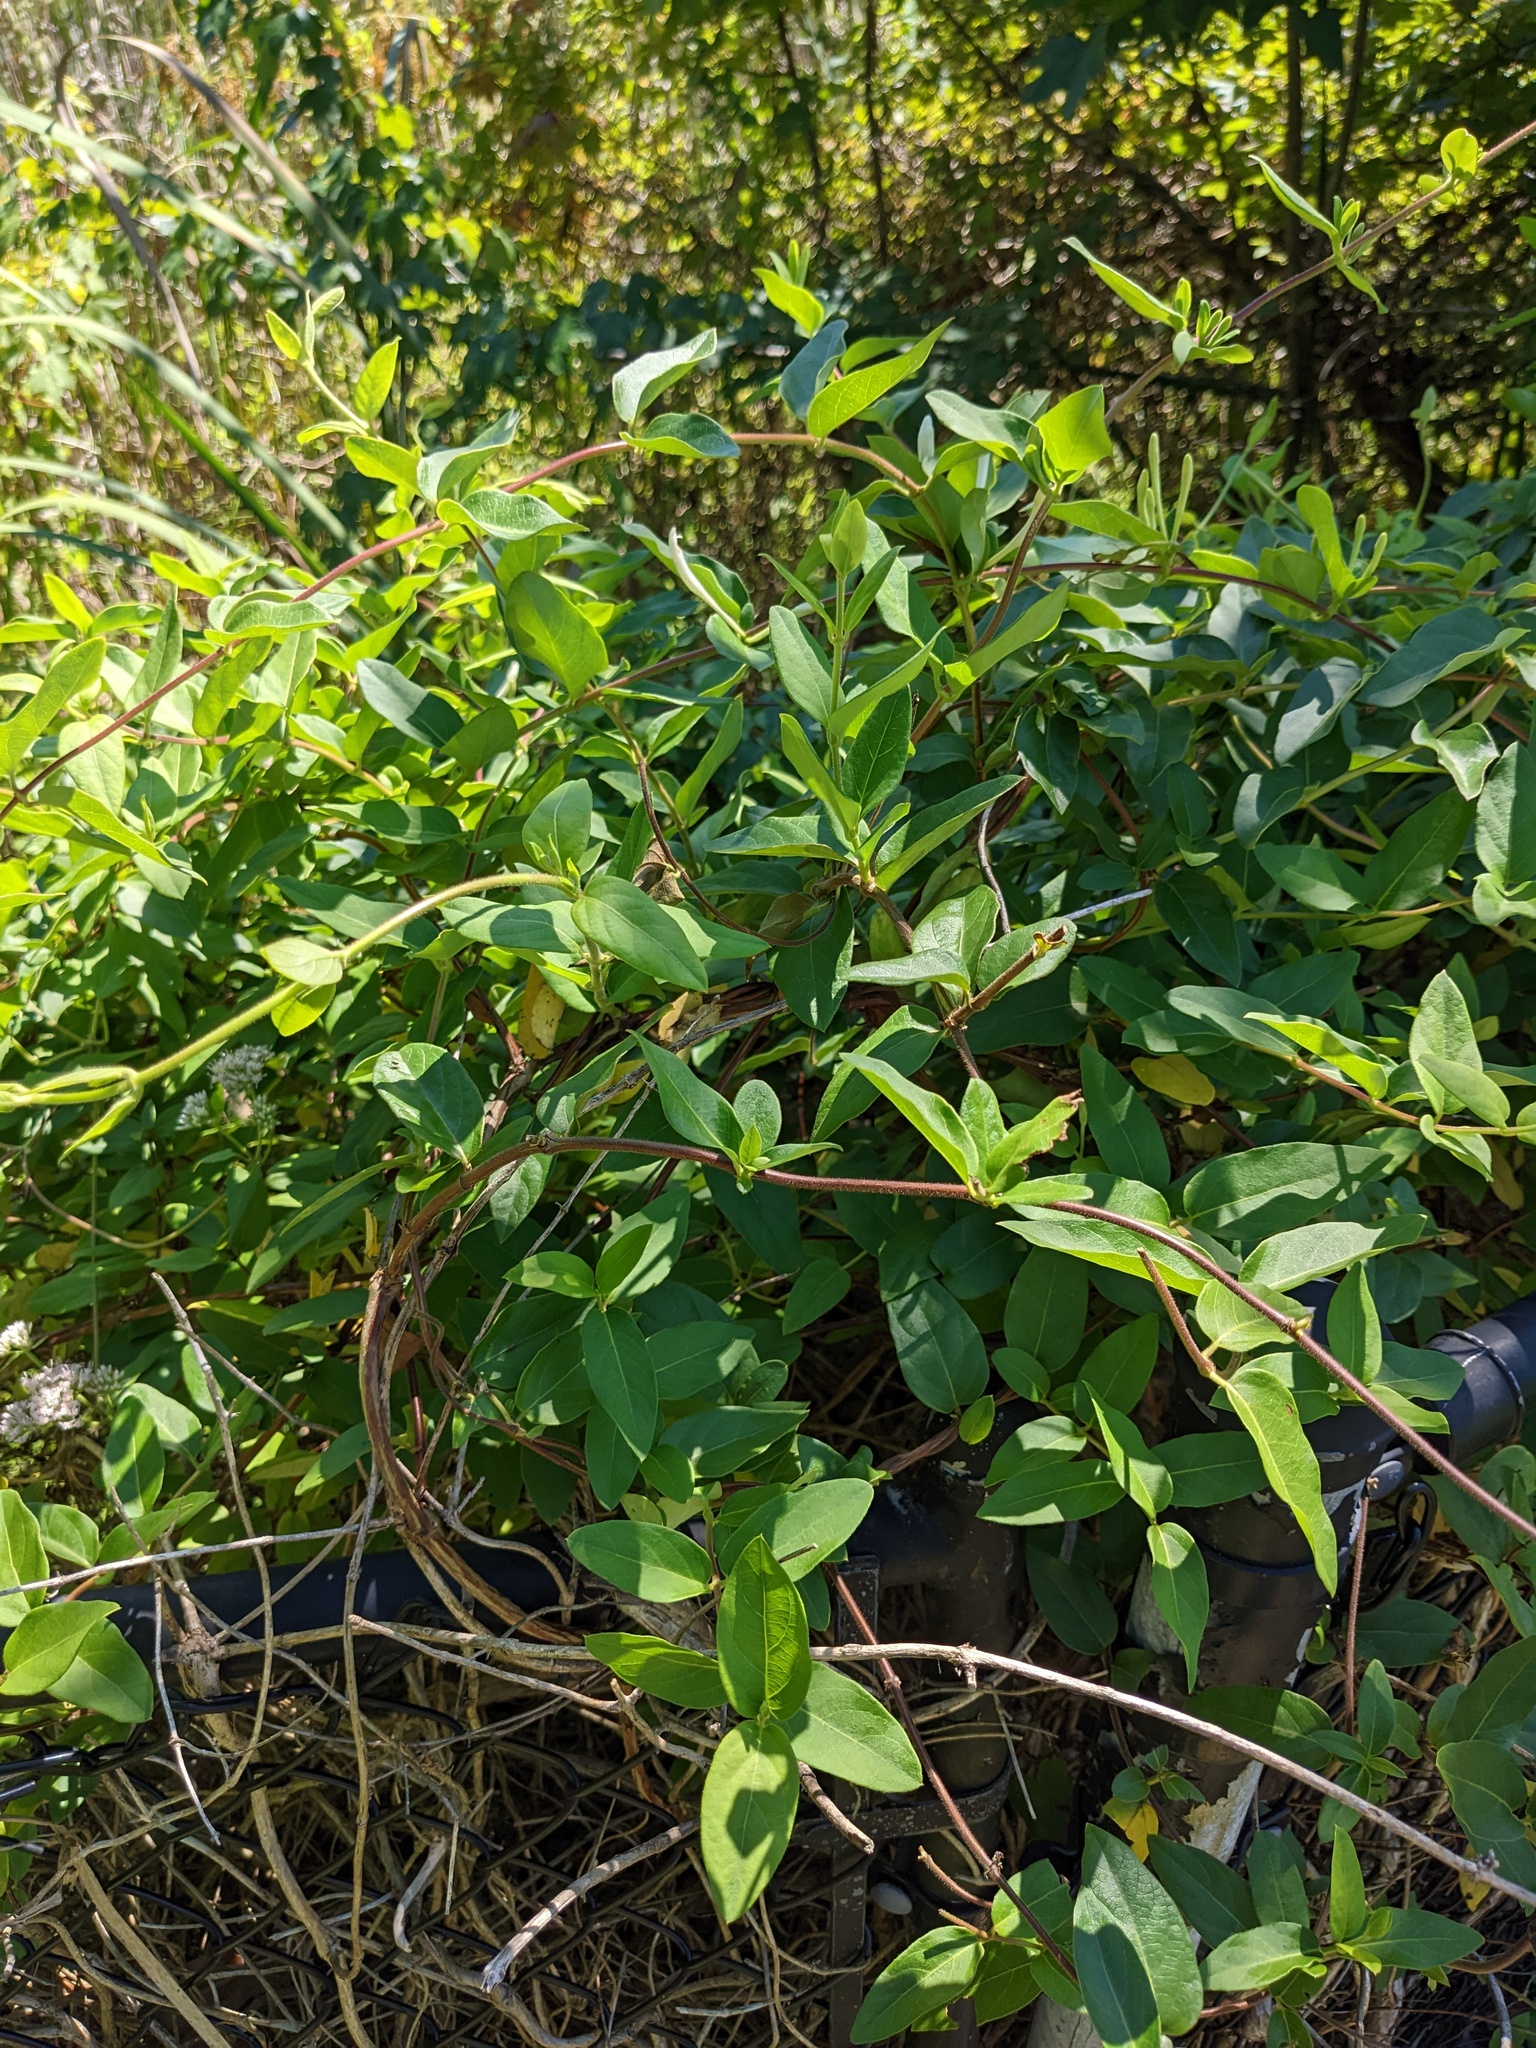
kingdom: Plantae
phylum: Tracheophyta
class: Magnoliopsida
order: Dipsacales
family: Caprifoliaceae
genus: Lonicera
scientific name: Lonicera japonica
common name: Japanese honeysuckle
